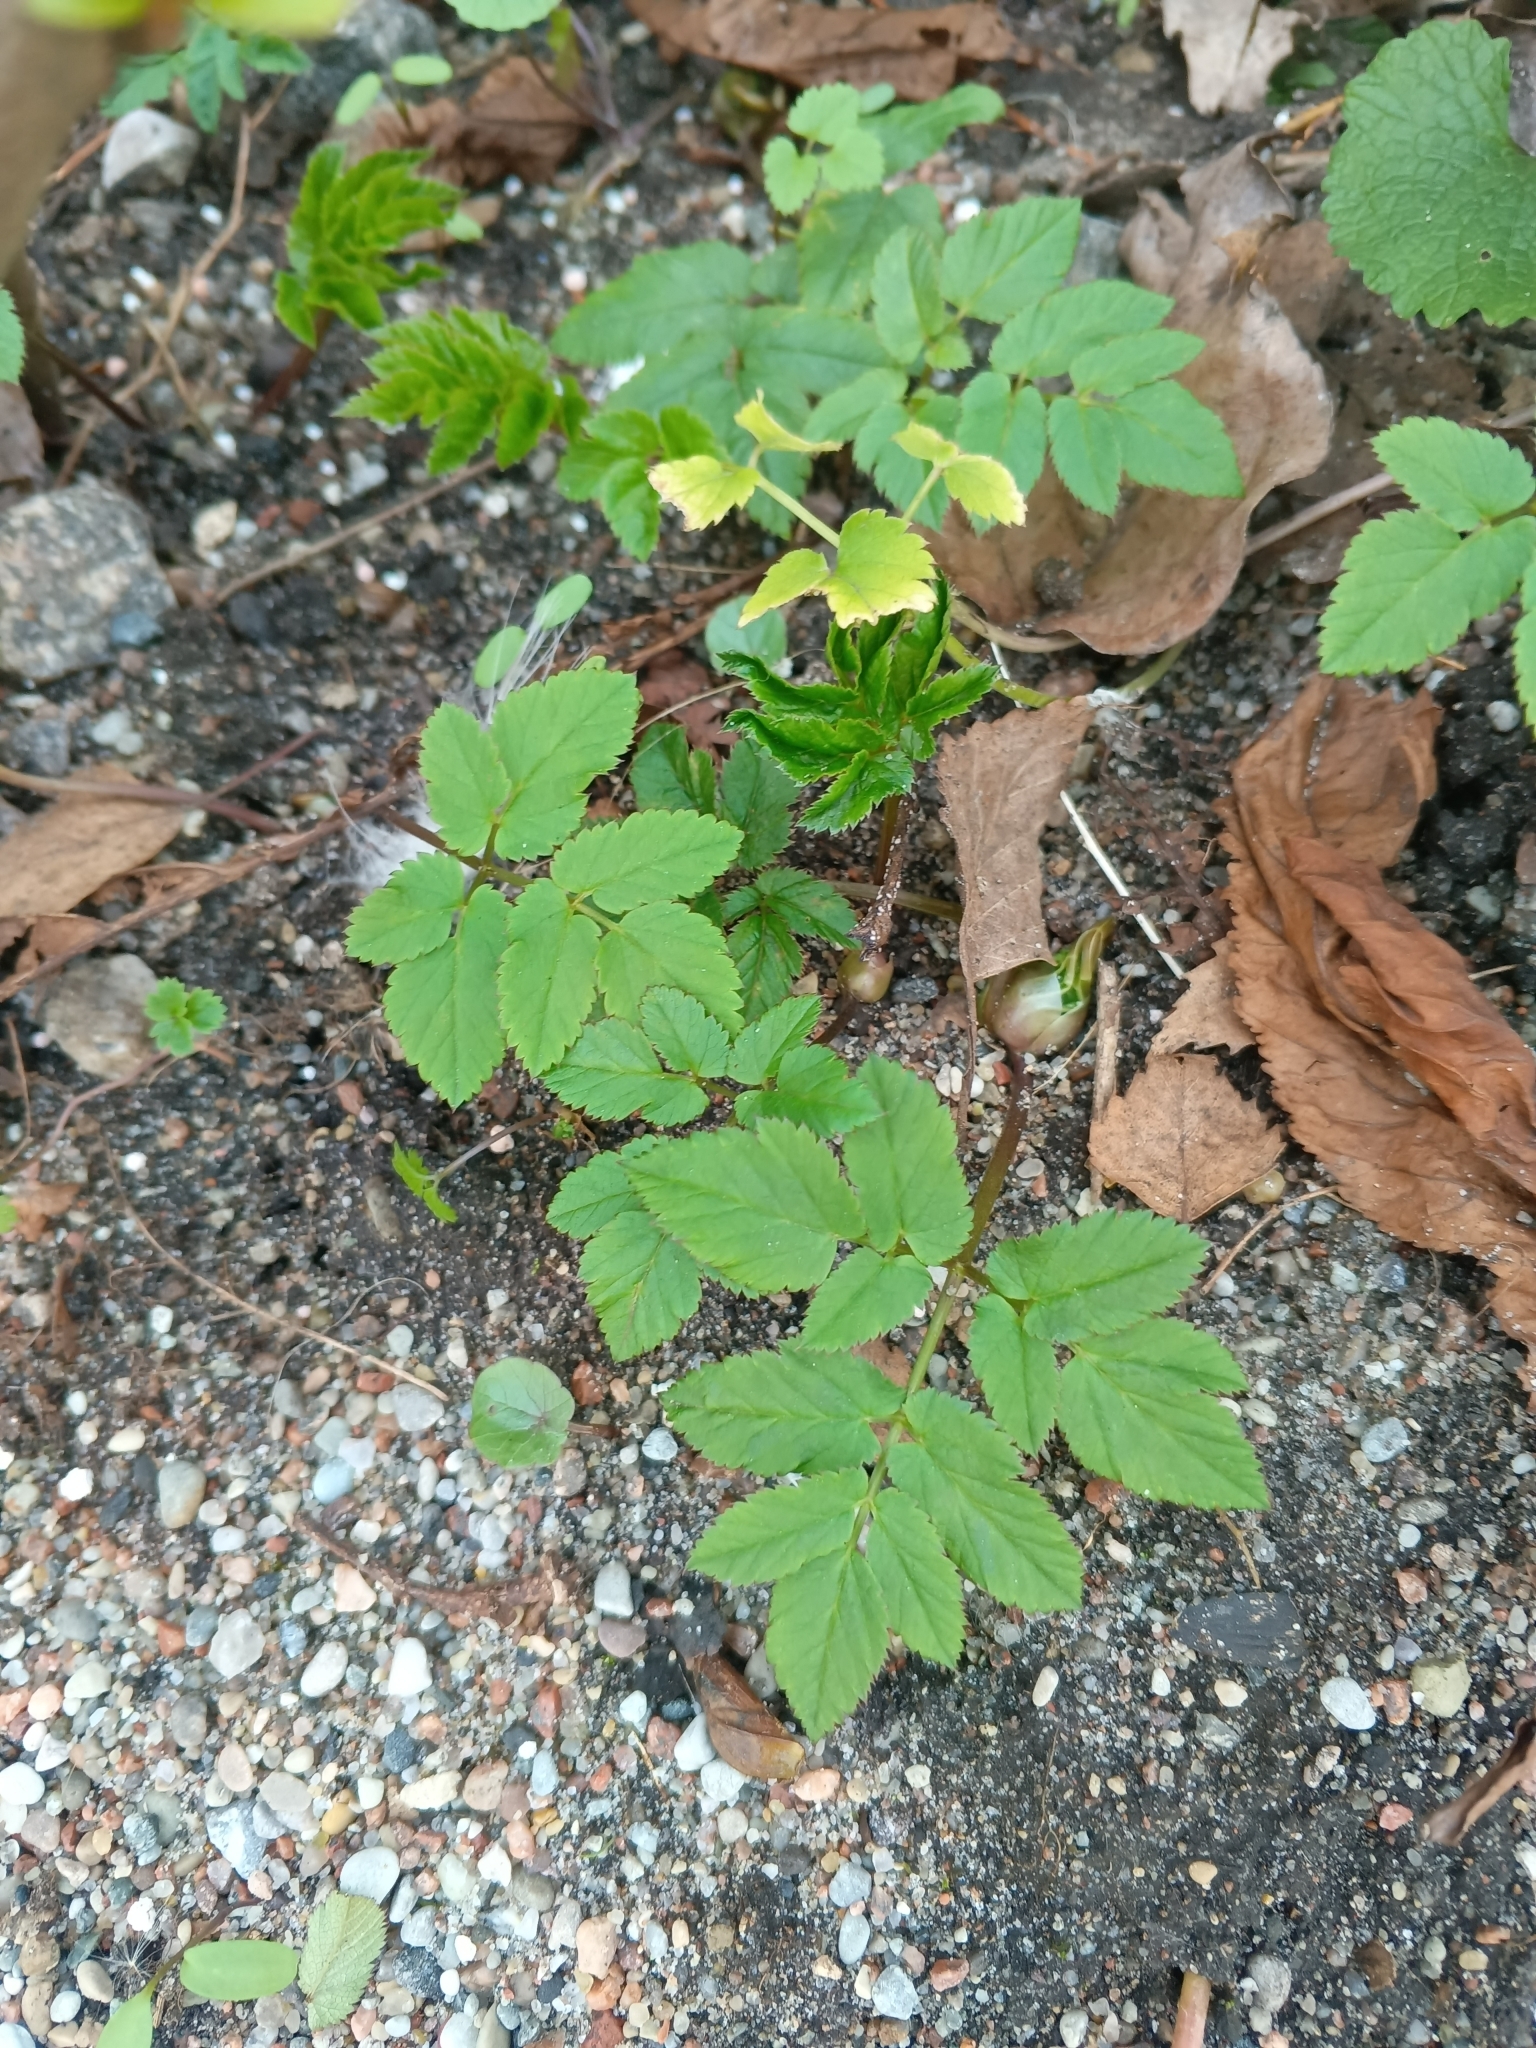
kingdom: Plantae
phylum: Tracheophyta
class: Magnoliopsida
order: Apiales
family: Apiaceae
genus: Aegopodium
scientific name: Aegopodium podagraria
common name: Ground-elder
